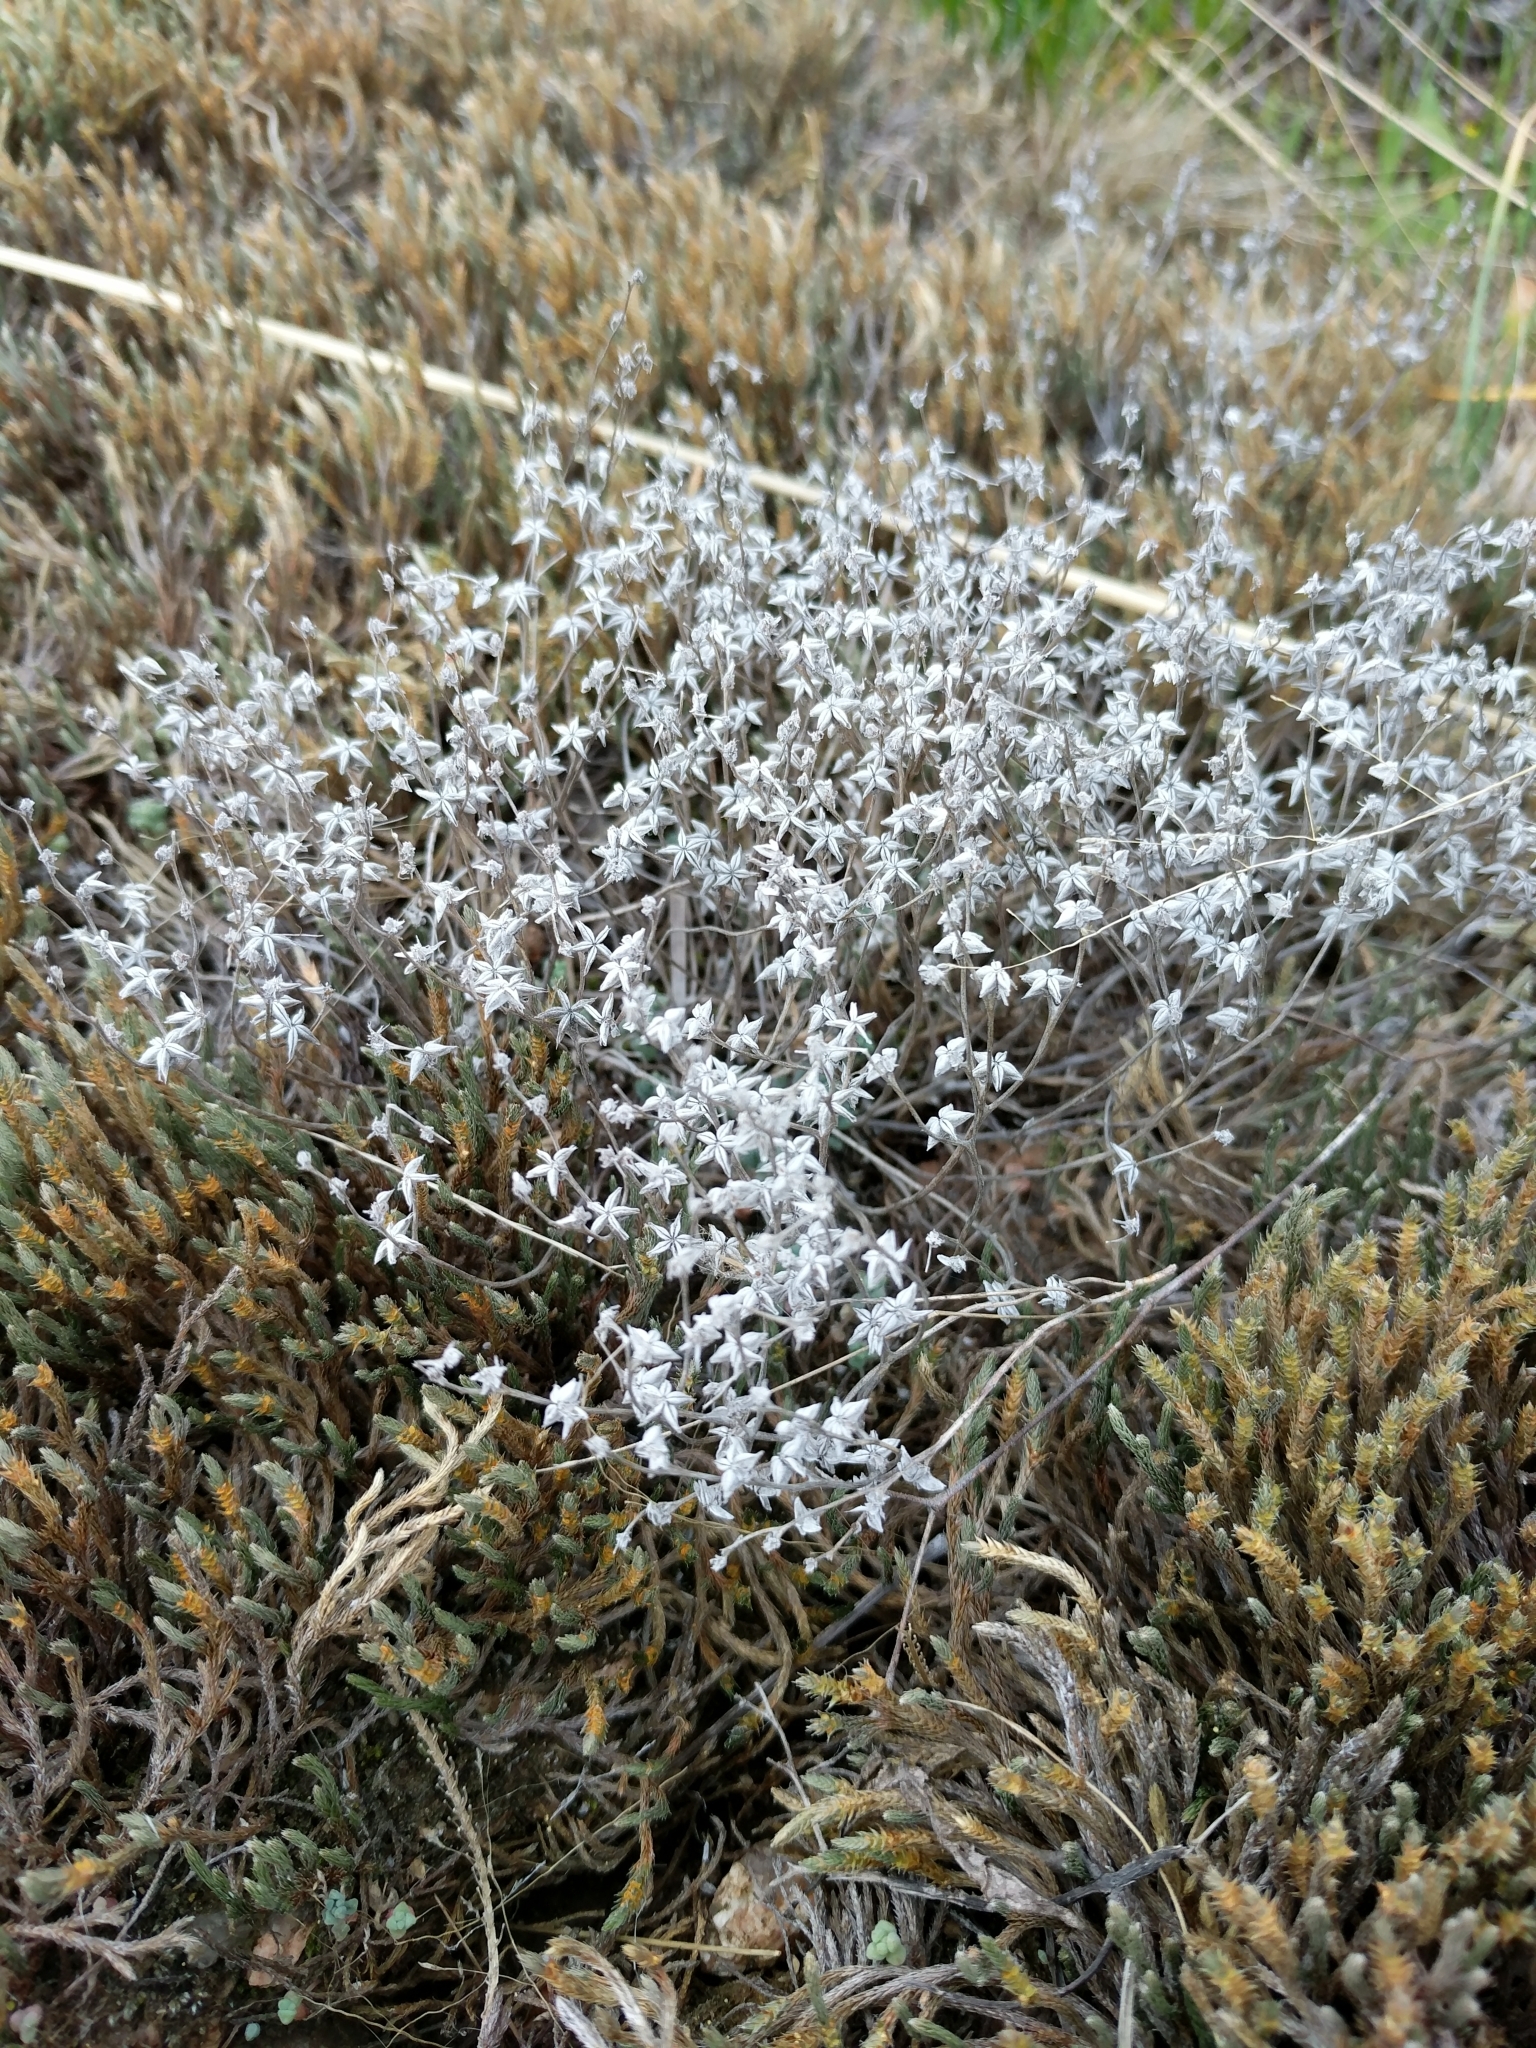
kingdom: Plantae
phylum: Tracheophyta
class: Magnoliopsida
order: Saxifragales
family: Crassulaceae
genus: Sedum
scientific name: Sedum nuttallii
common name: Yellow stonecrop
